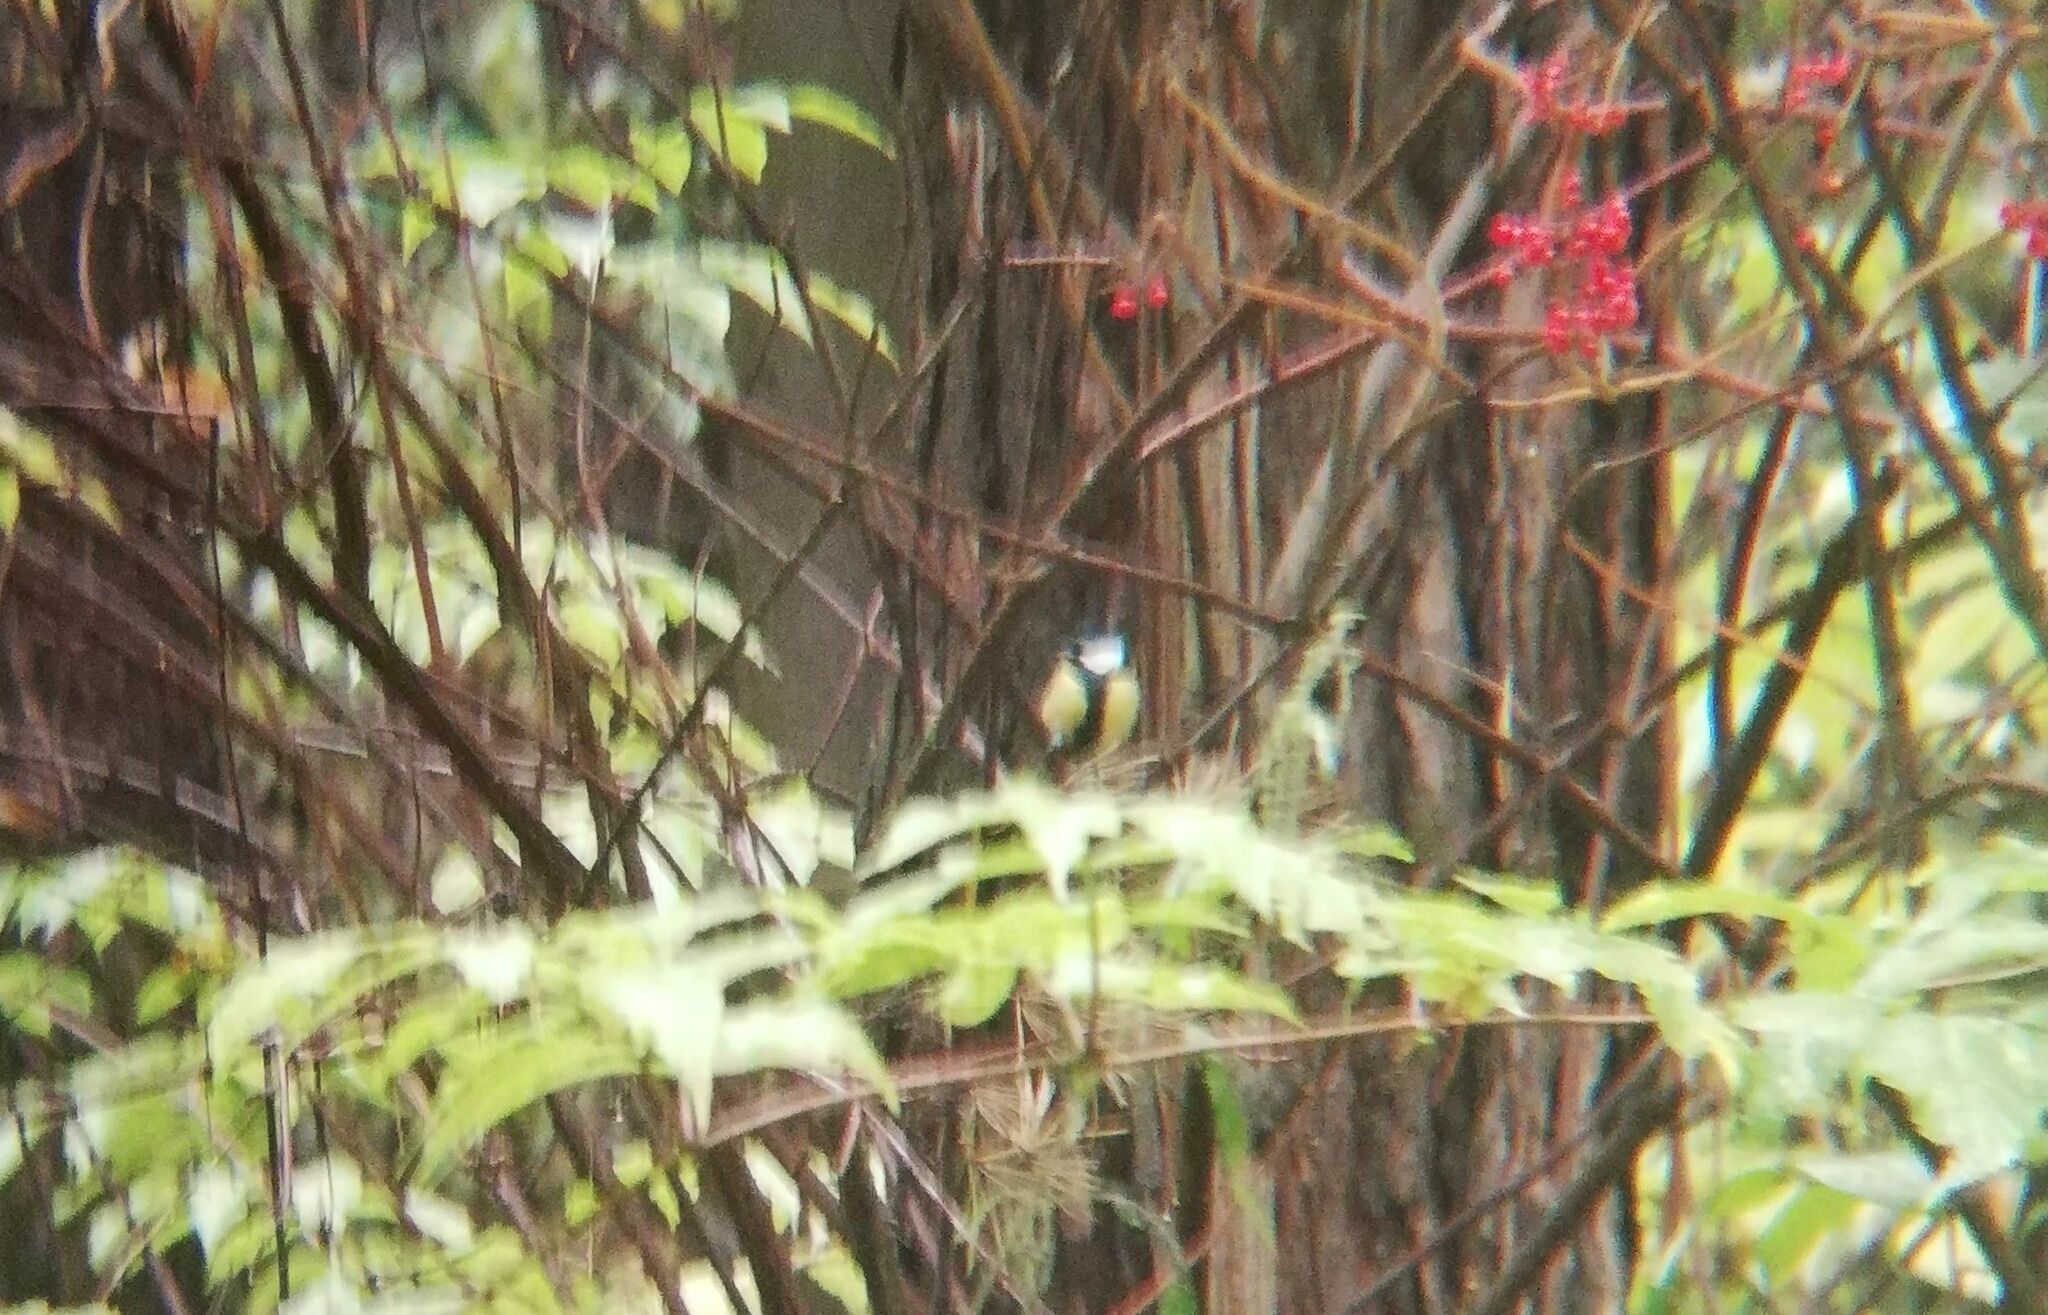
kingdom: Animalia
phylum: Chordata
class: Aves
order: Passeriformes
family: Paridae
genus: Parus
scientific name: Parus major
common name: Great tit
